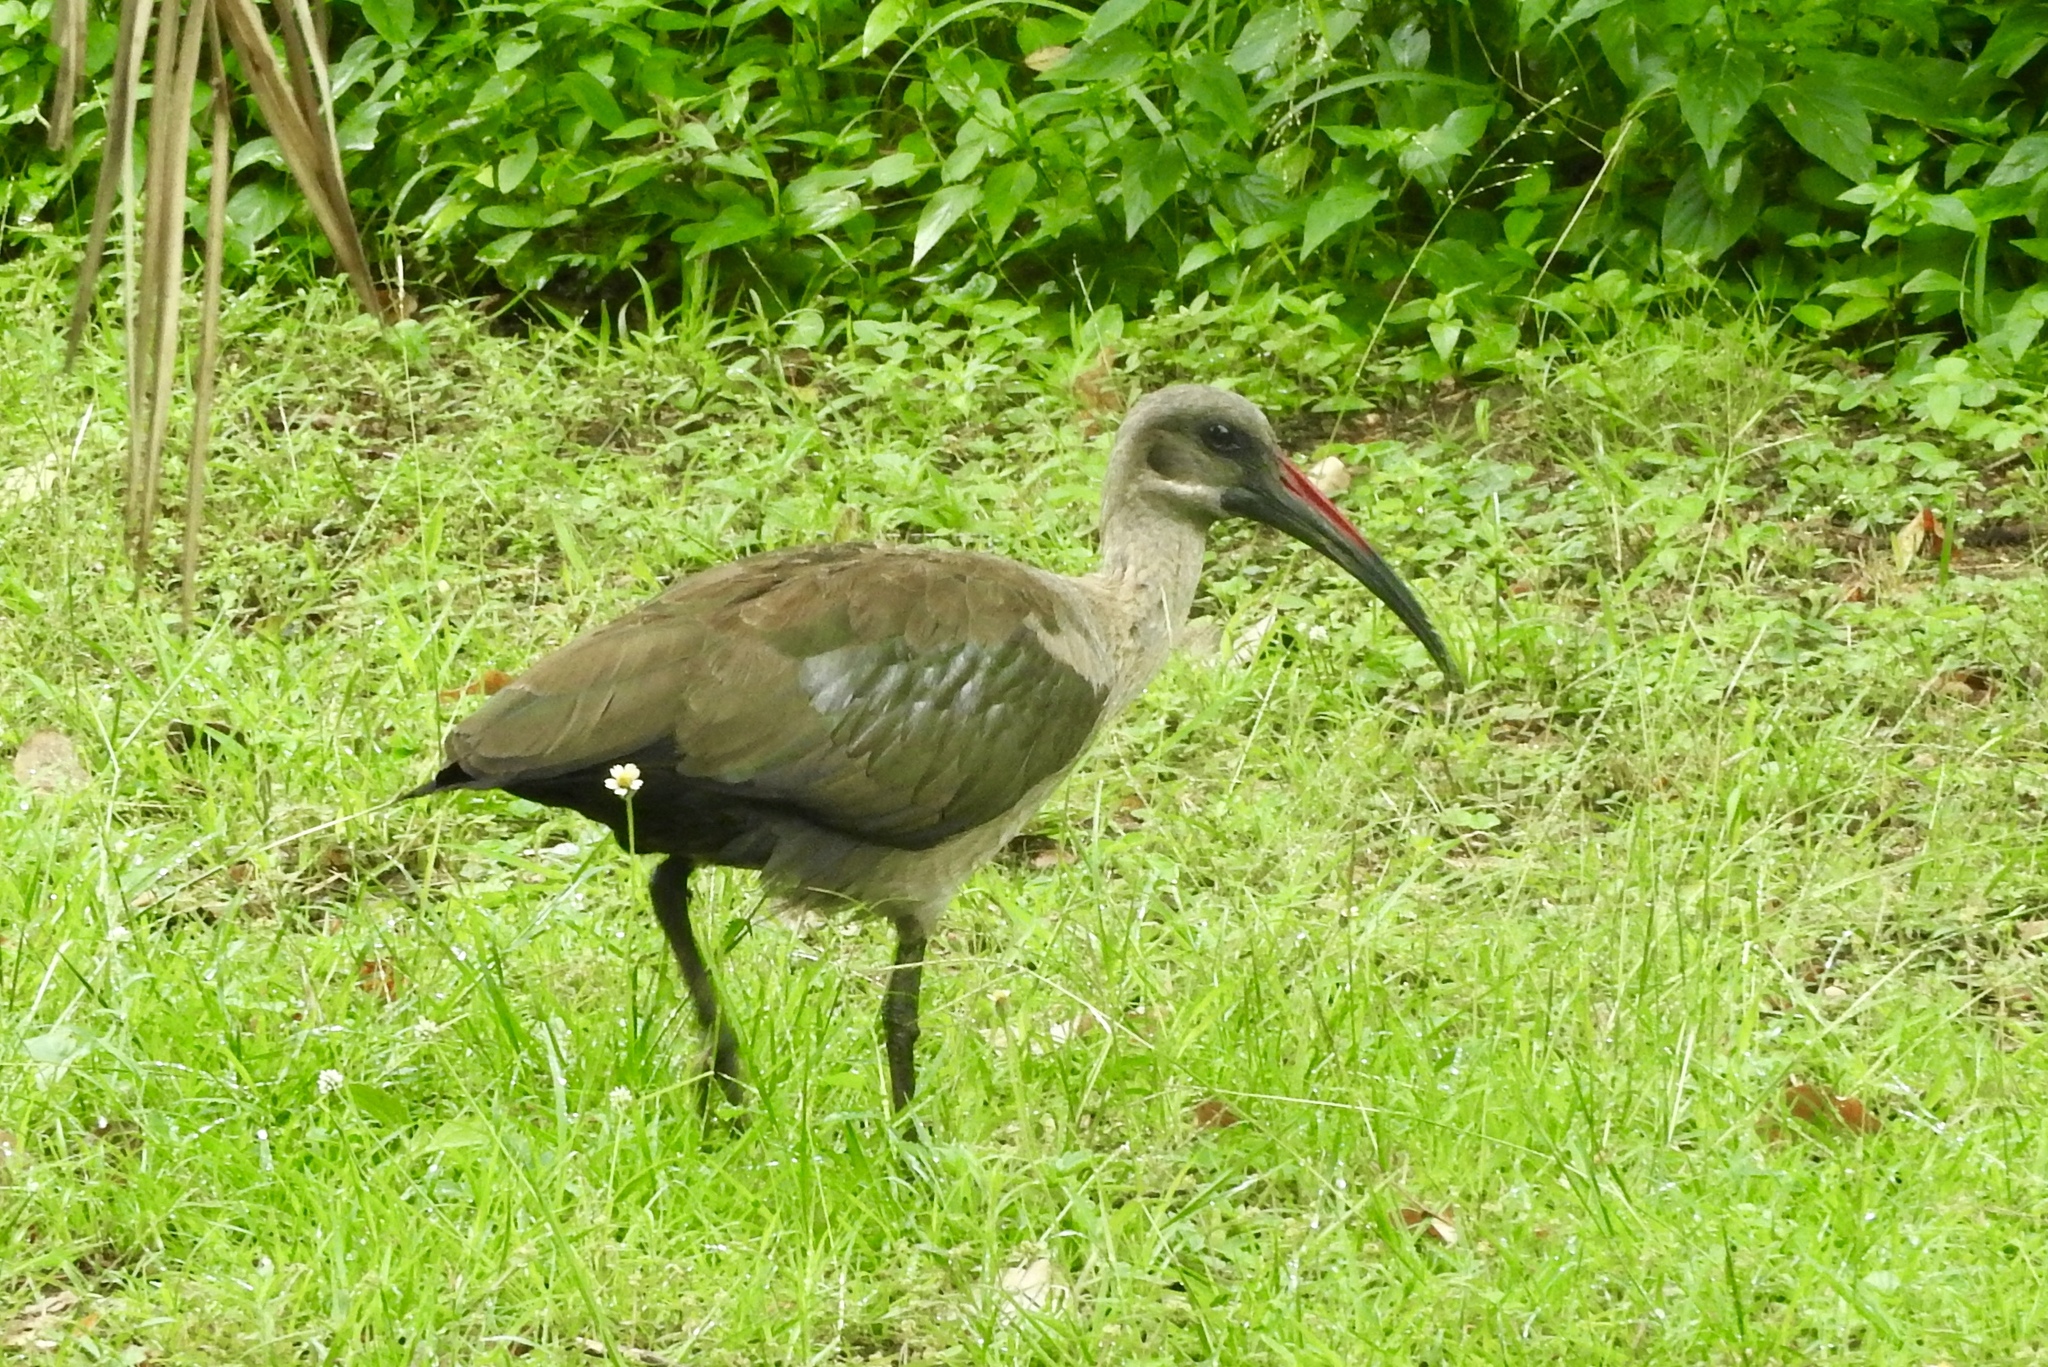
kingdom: Animalia
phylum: Chordata
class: Aves
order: Pelecaniformes
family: Threskiornithidae
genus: Bostrychia
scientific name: Bostrychia hagedash
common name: Hadada ibis
